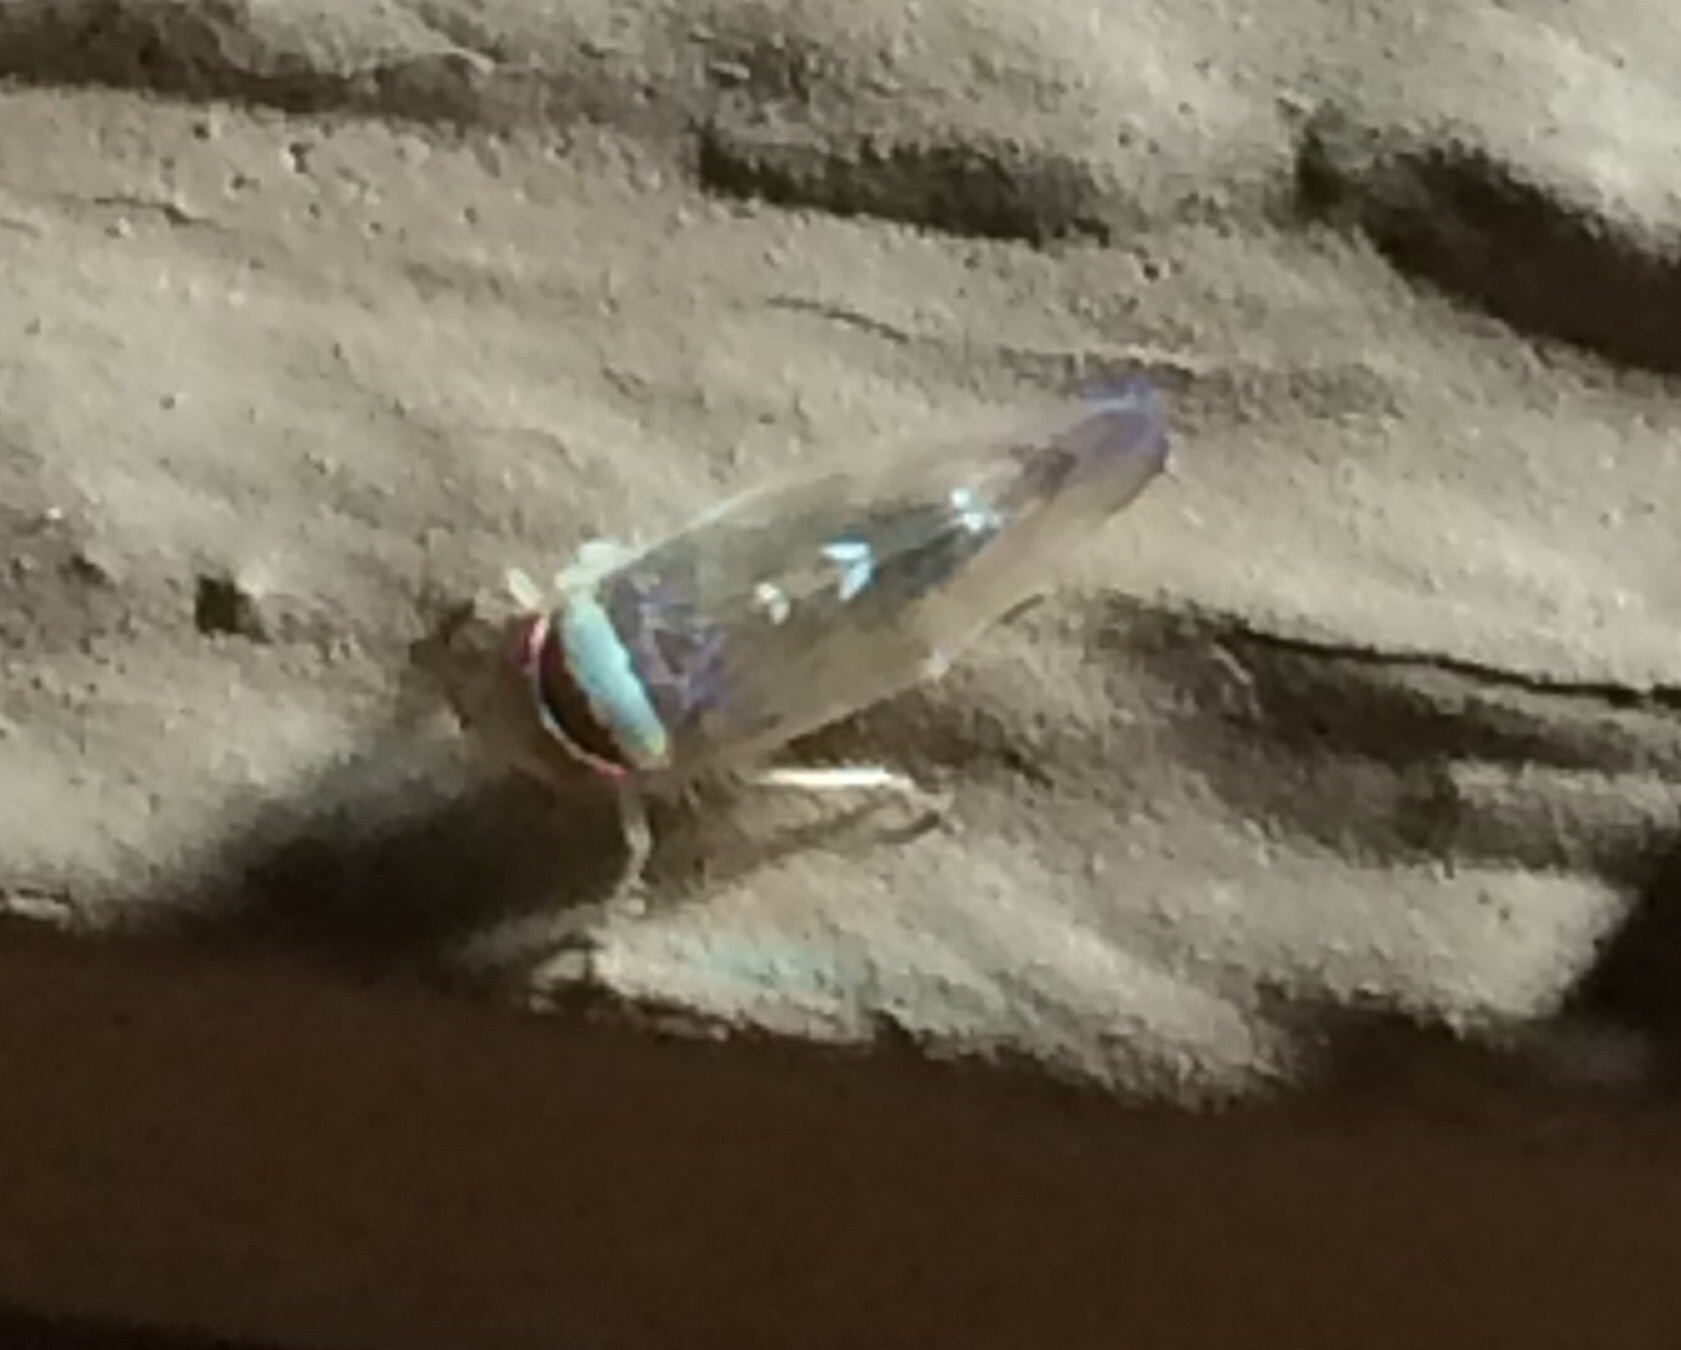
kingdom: Animalia
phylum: Arthropoda
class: Insecta
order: Hemiptera
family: Cicadellidae
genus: Colladonus
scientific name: Colladonus montanus
